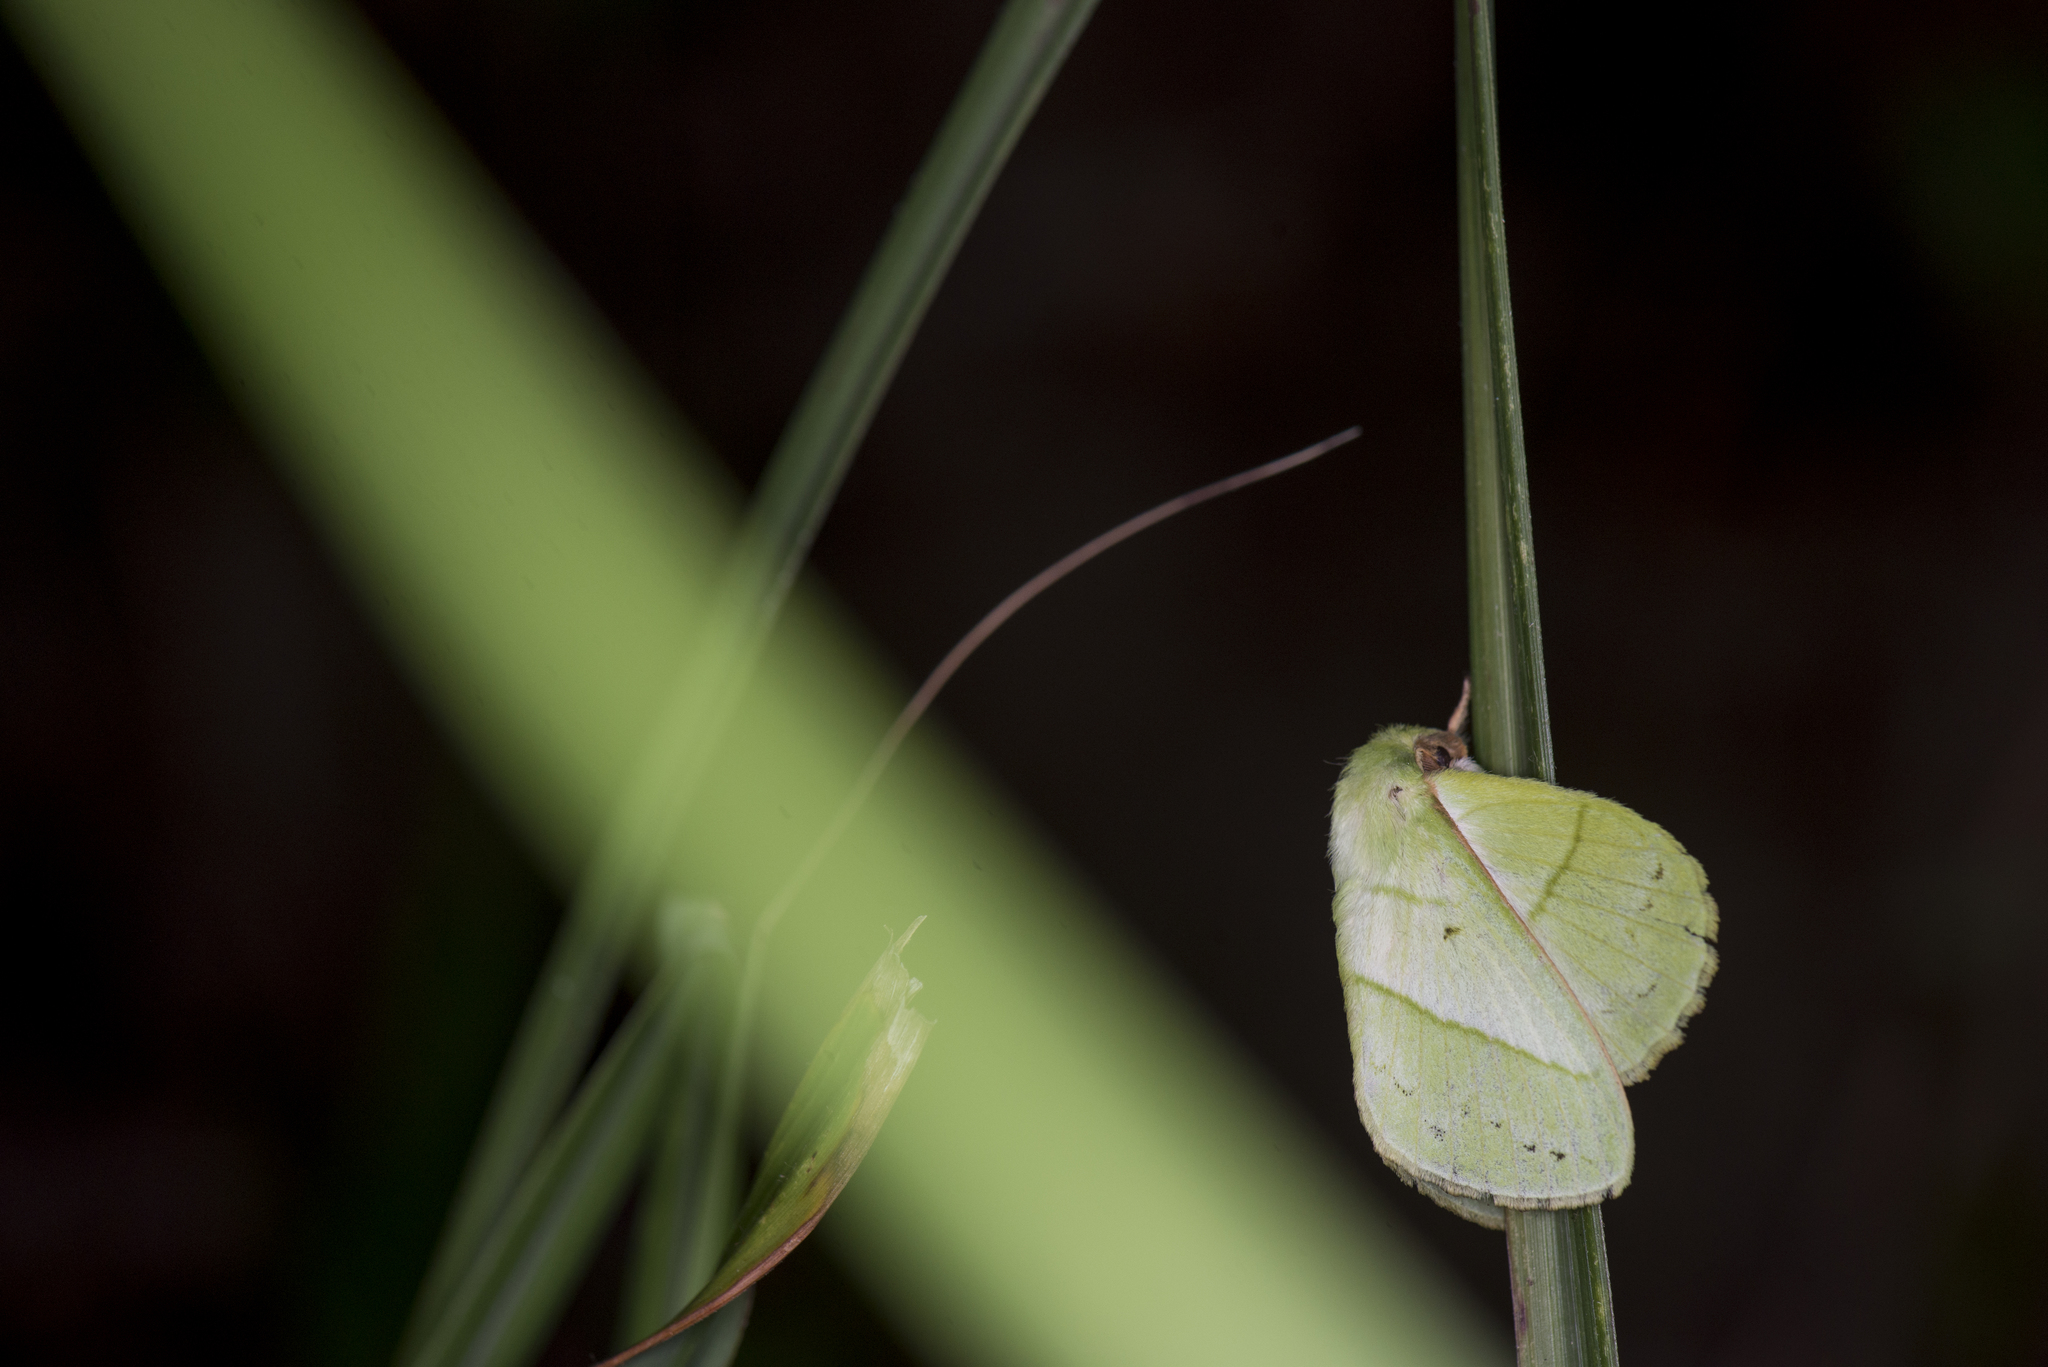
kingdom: Animalia
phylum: Arthropoda
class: Insecta
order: Lepidoptera
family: Lasiocampidae
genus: Trabala
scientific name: Trabala vishnou
